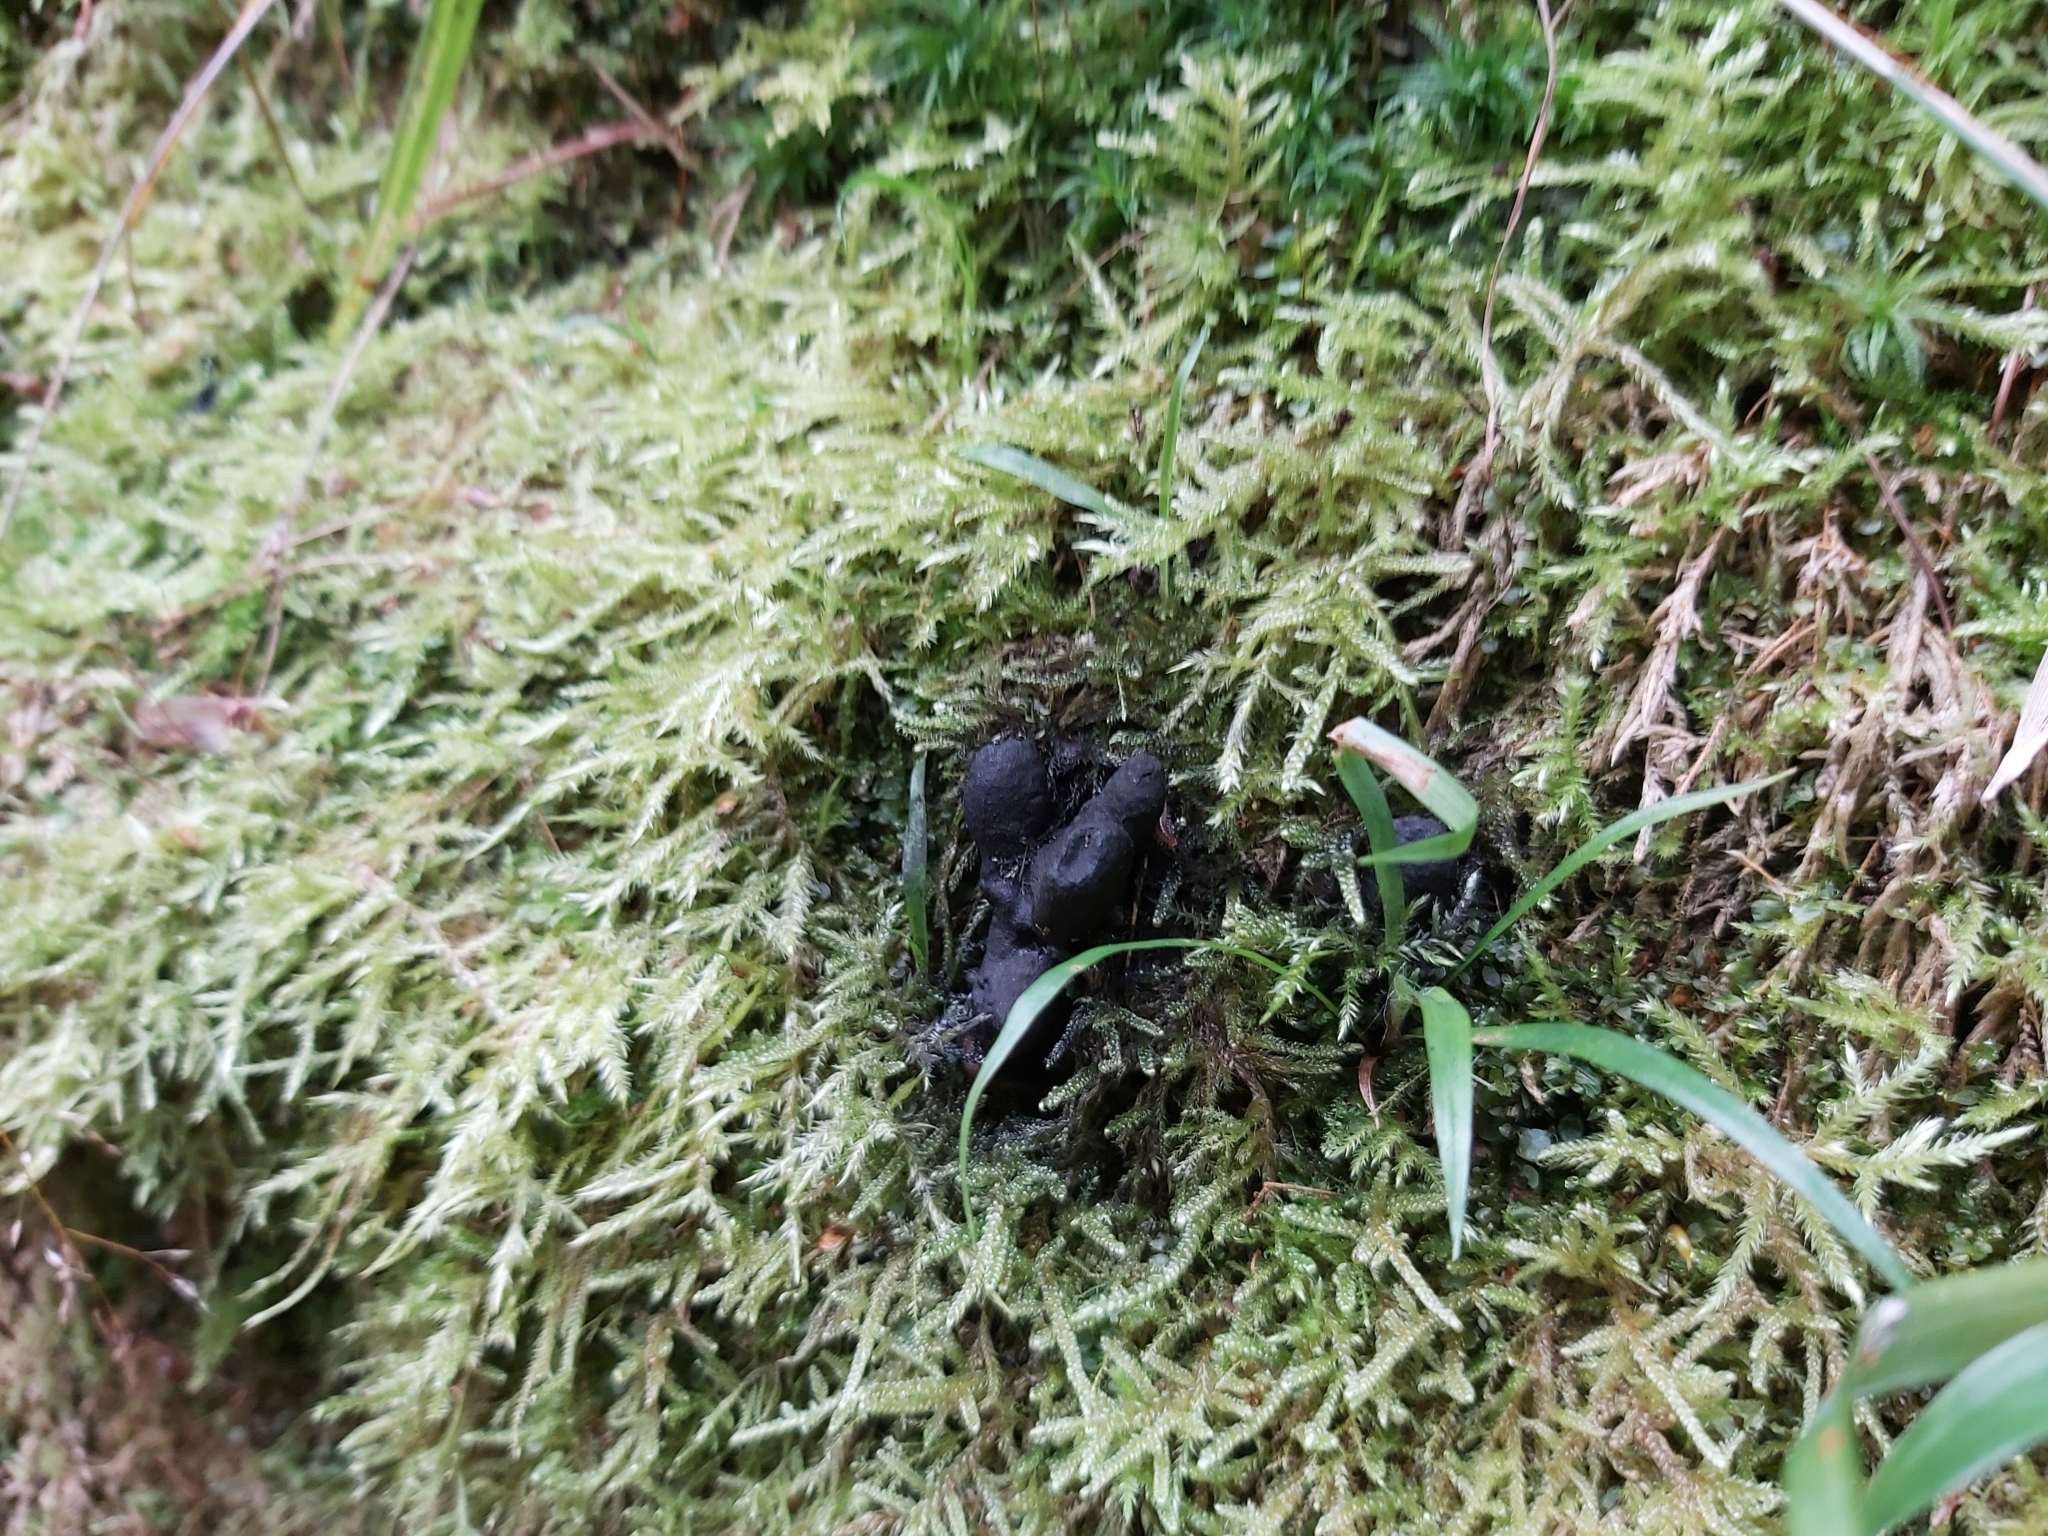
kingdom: Fungi
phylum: Ascomycota
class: Sordariomycetes
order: Xylariales
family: Xylariaceae
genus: Xylaria
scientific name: Xylaria polymorpha
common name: Dead man's fingers
